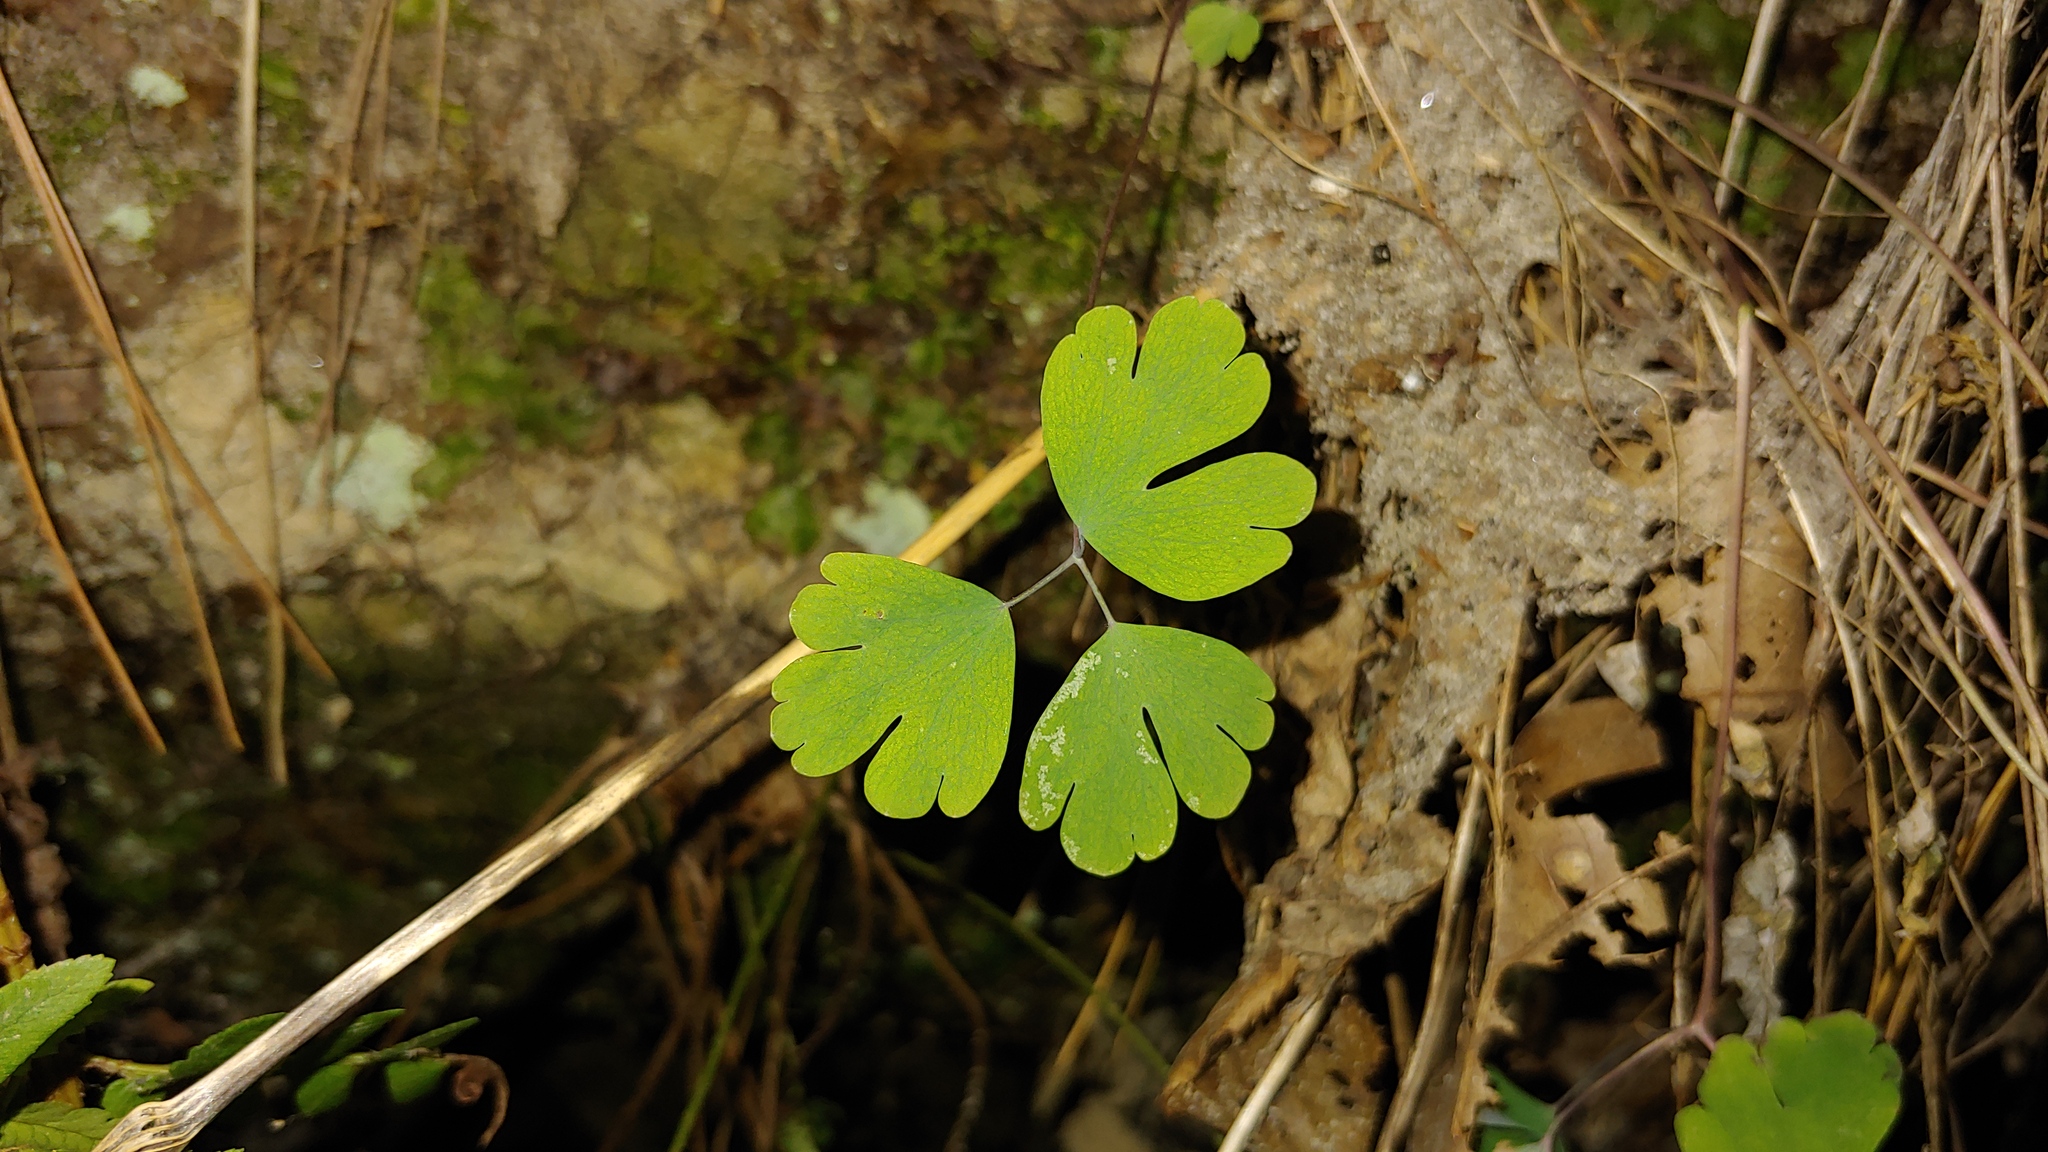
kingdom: Plantae
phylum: Tracheophyta
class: Magnoliopsida
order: Ranunculales
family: Ranunculaceae
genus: Aquilegia
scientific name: Aquilegia canadensis
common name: American columbine
